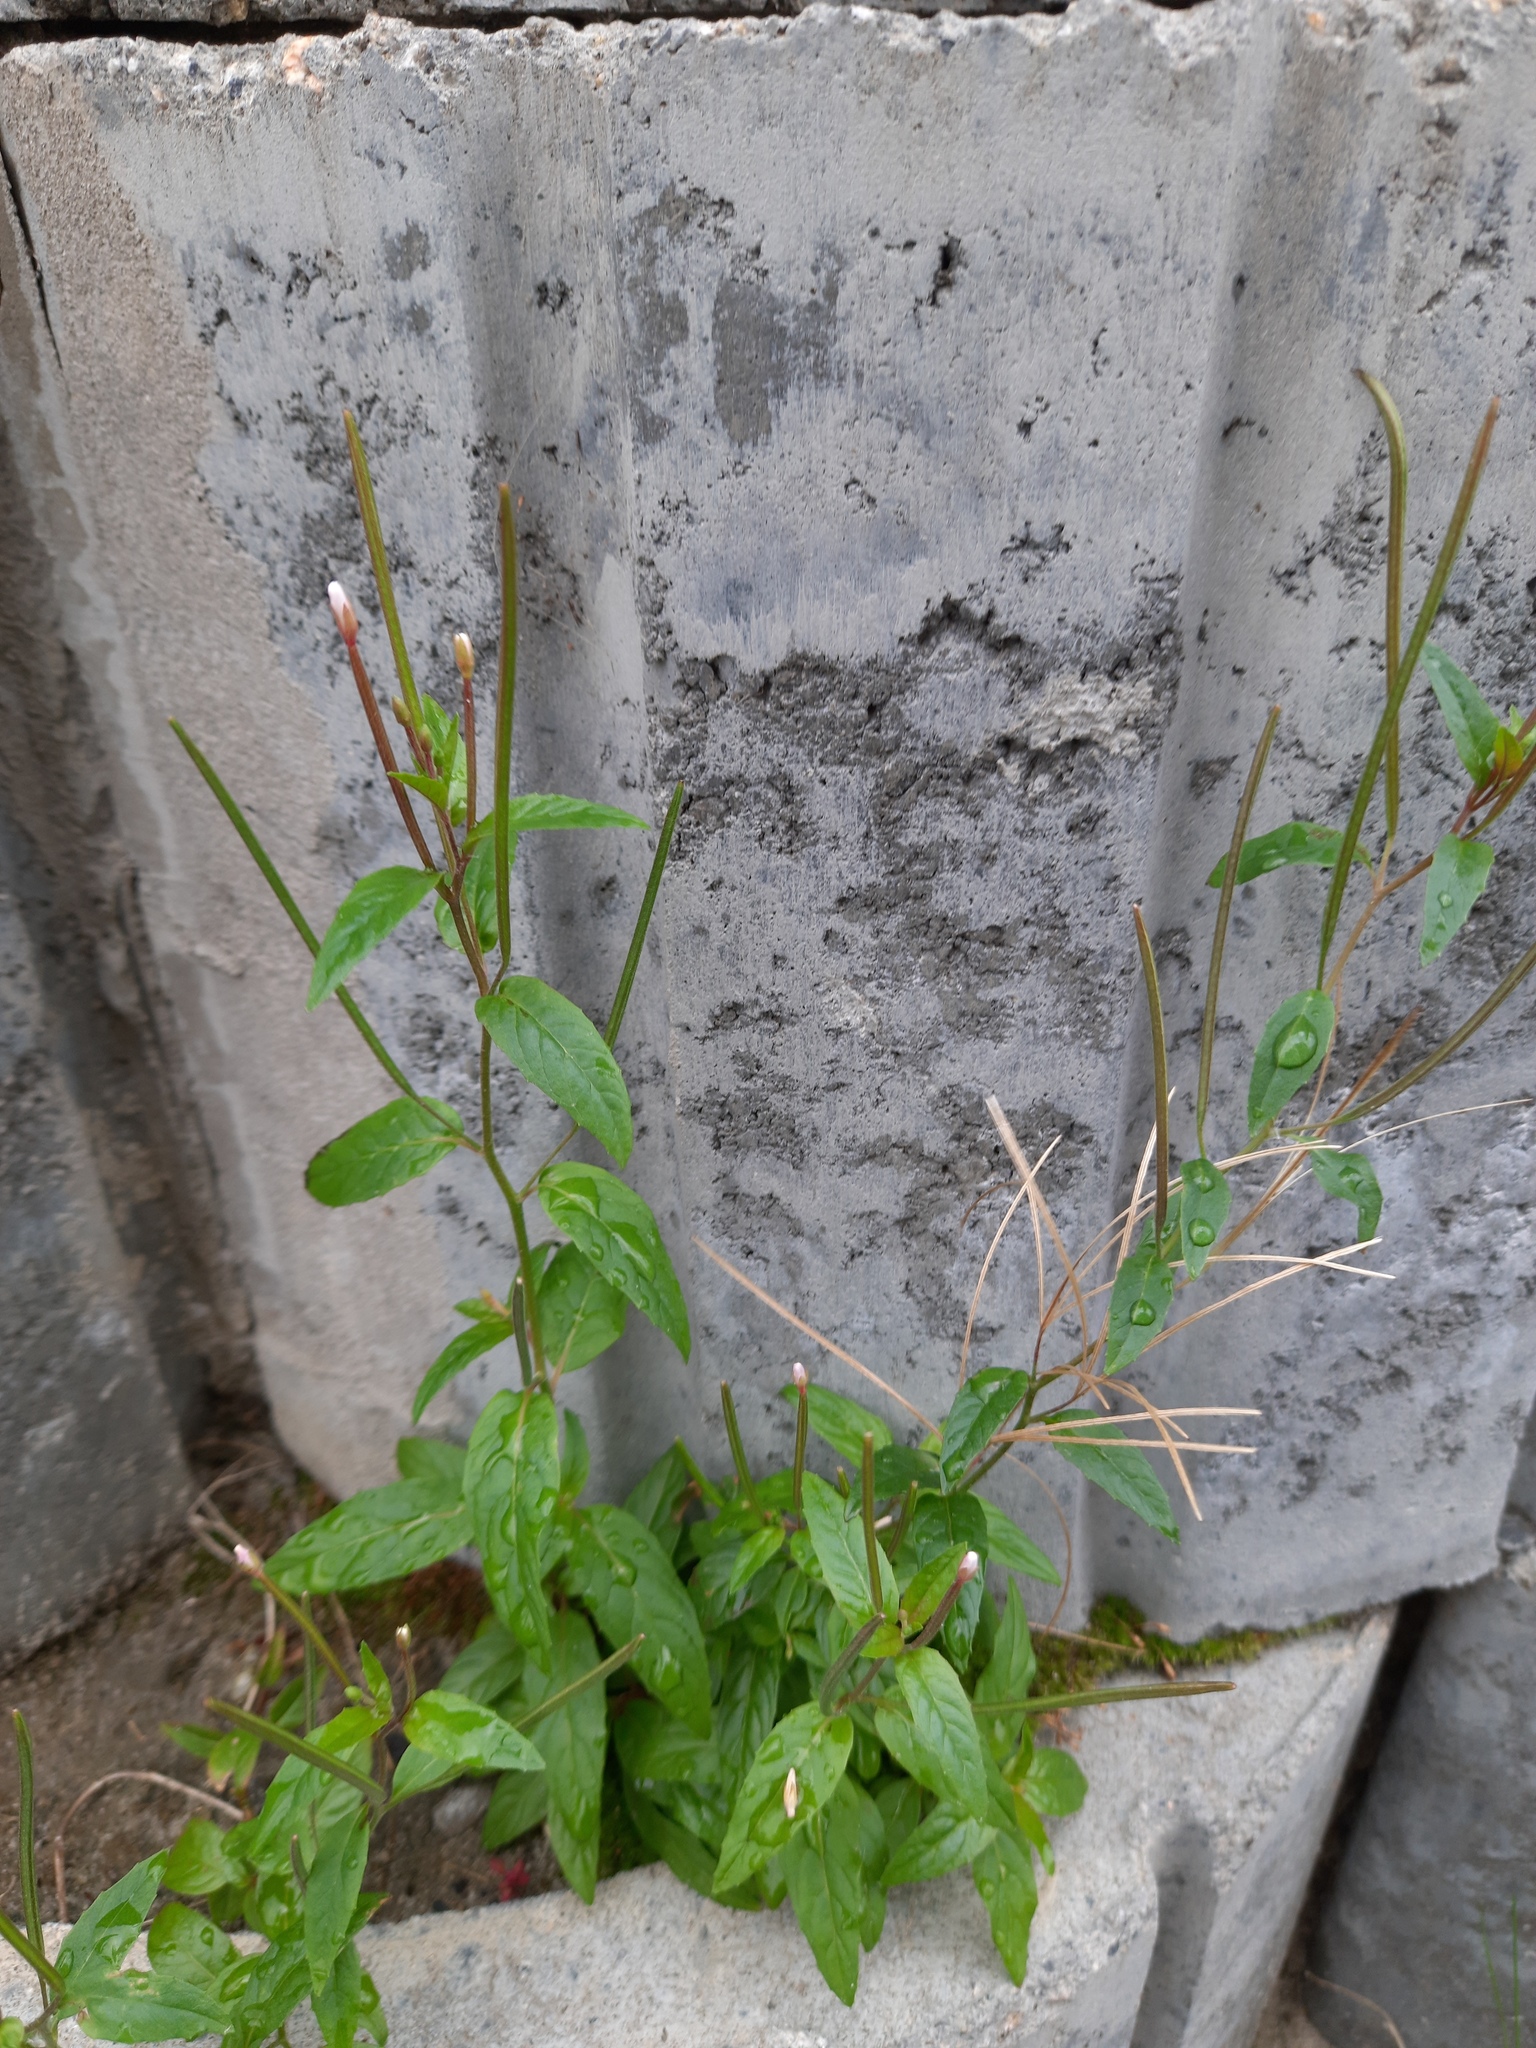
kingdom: Plantae
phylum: Tracheophyta
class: Magnoliopsida
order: Myrtales
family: Onagraceae
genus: Epilobium
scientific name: Epilobium pseudorubescens
